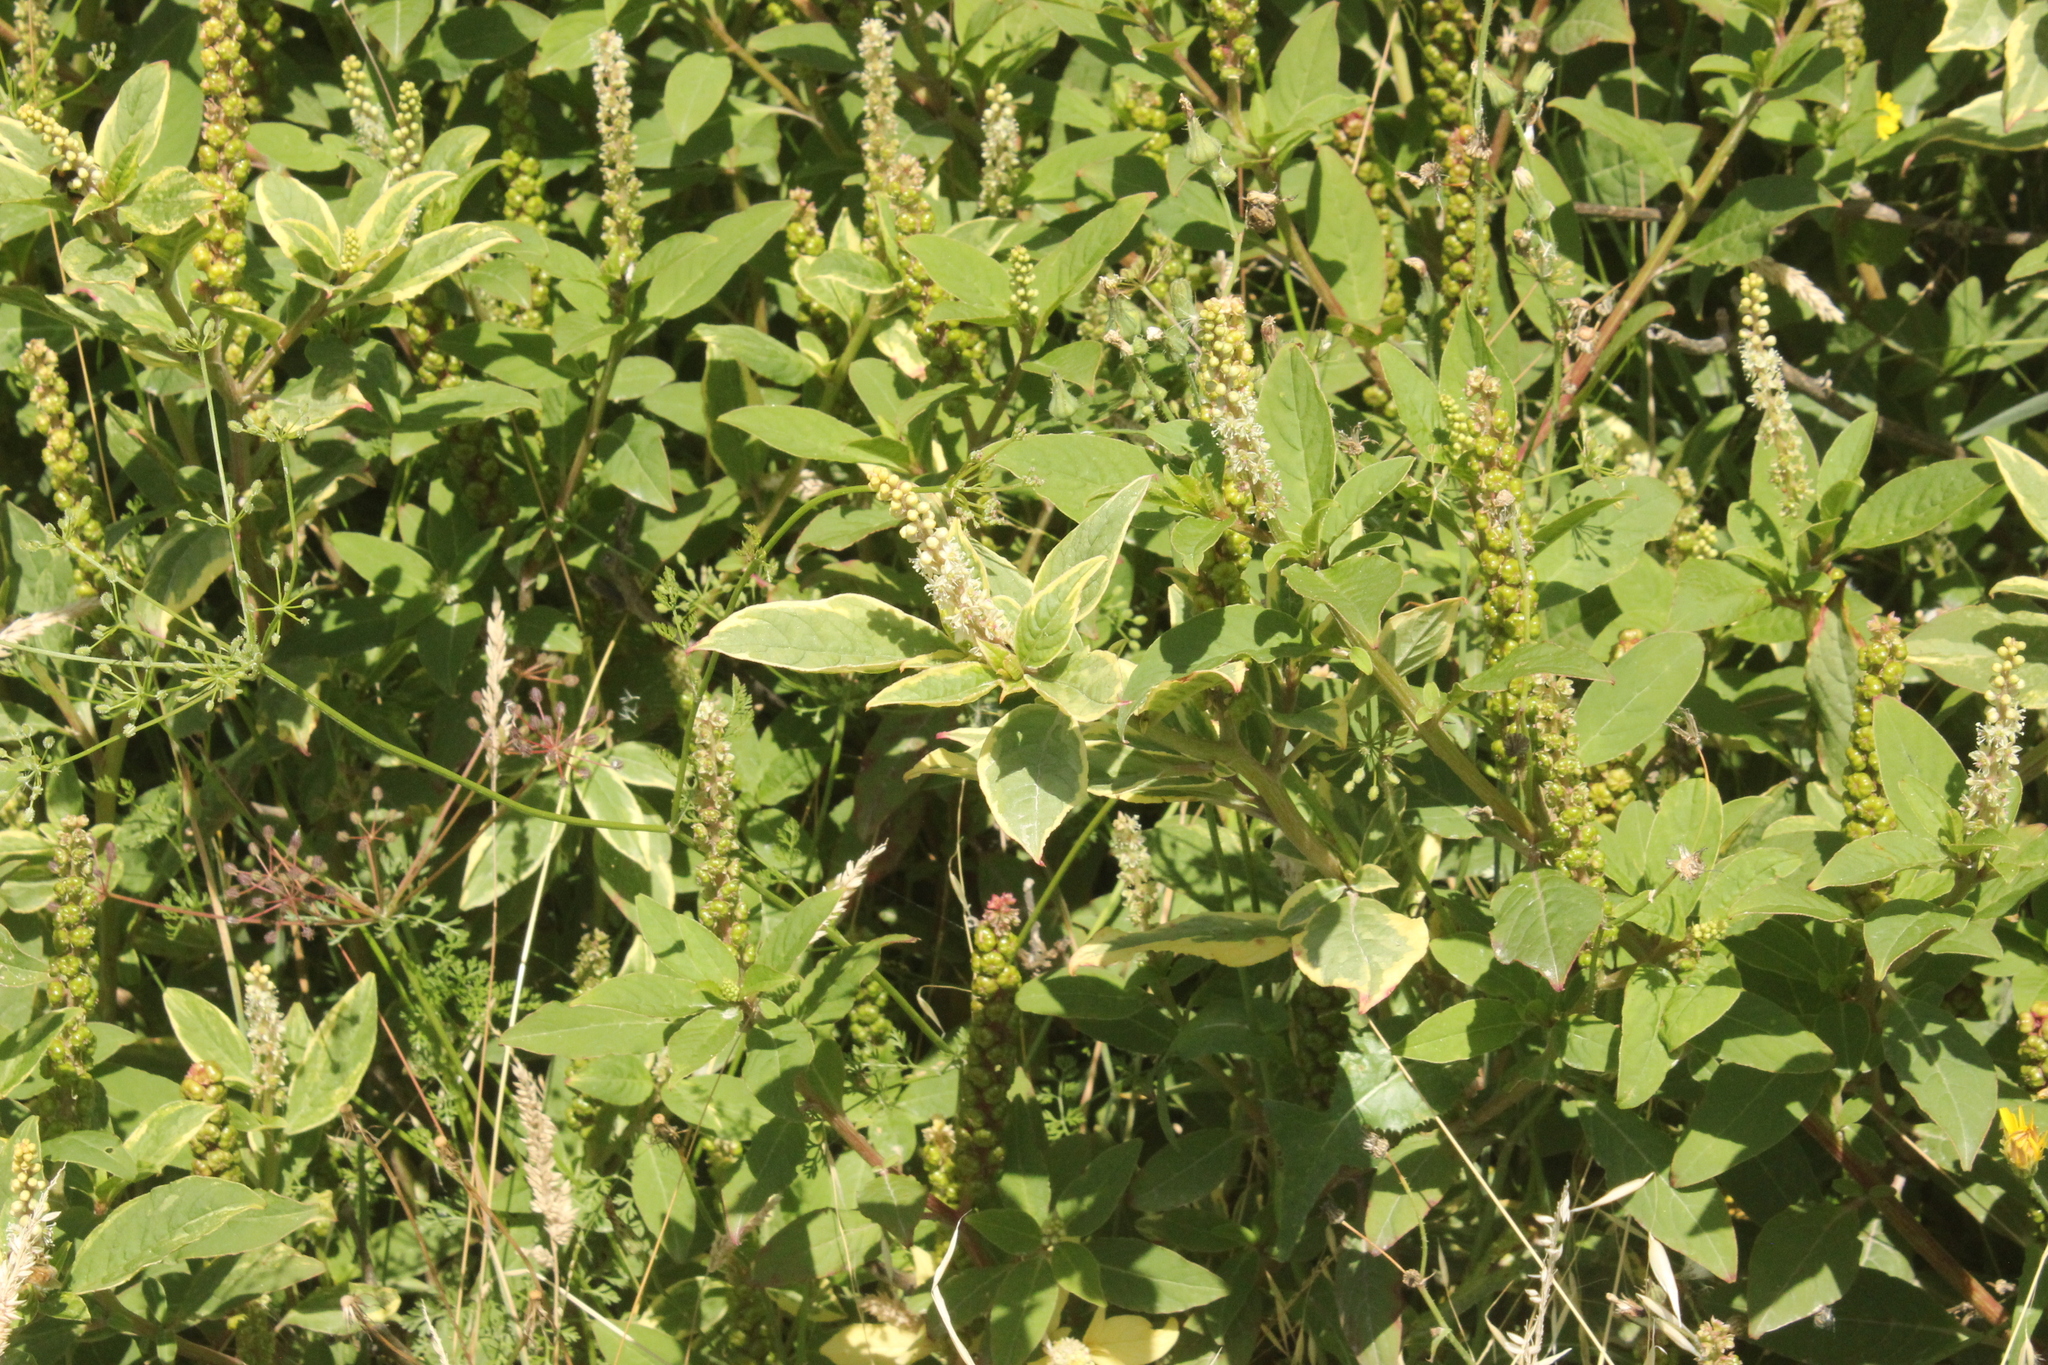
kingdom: Plantae
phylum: Tracheophyta
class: Magnoliopsida
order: Caryophyllales
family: Phytolaccaceae
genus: Phytolacca
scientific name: Phytolacca icosandra
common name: Button pokeweed
